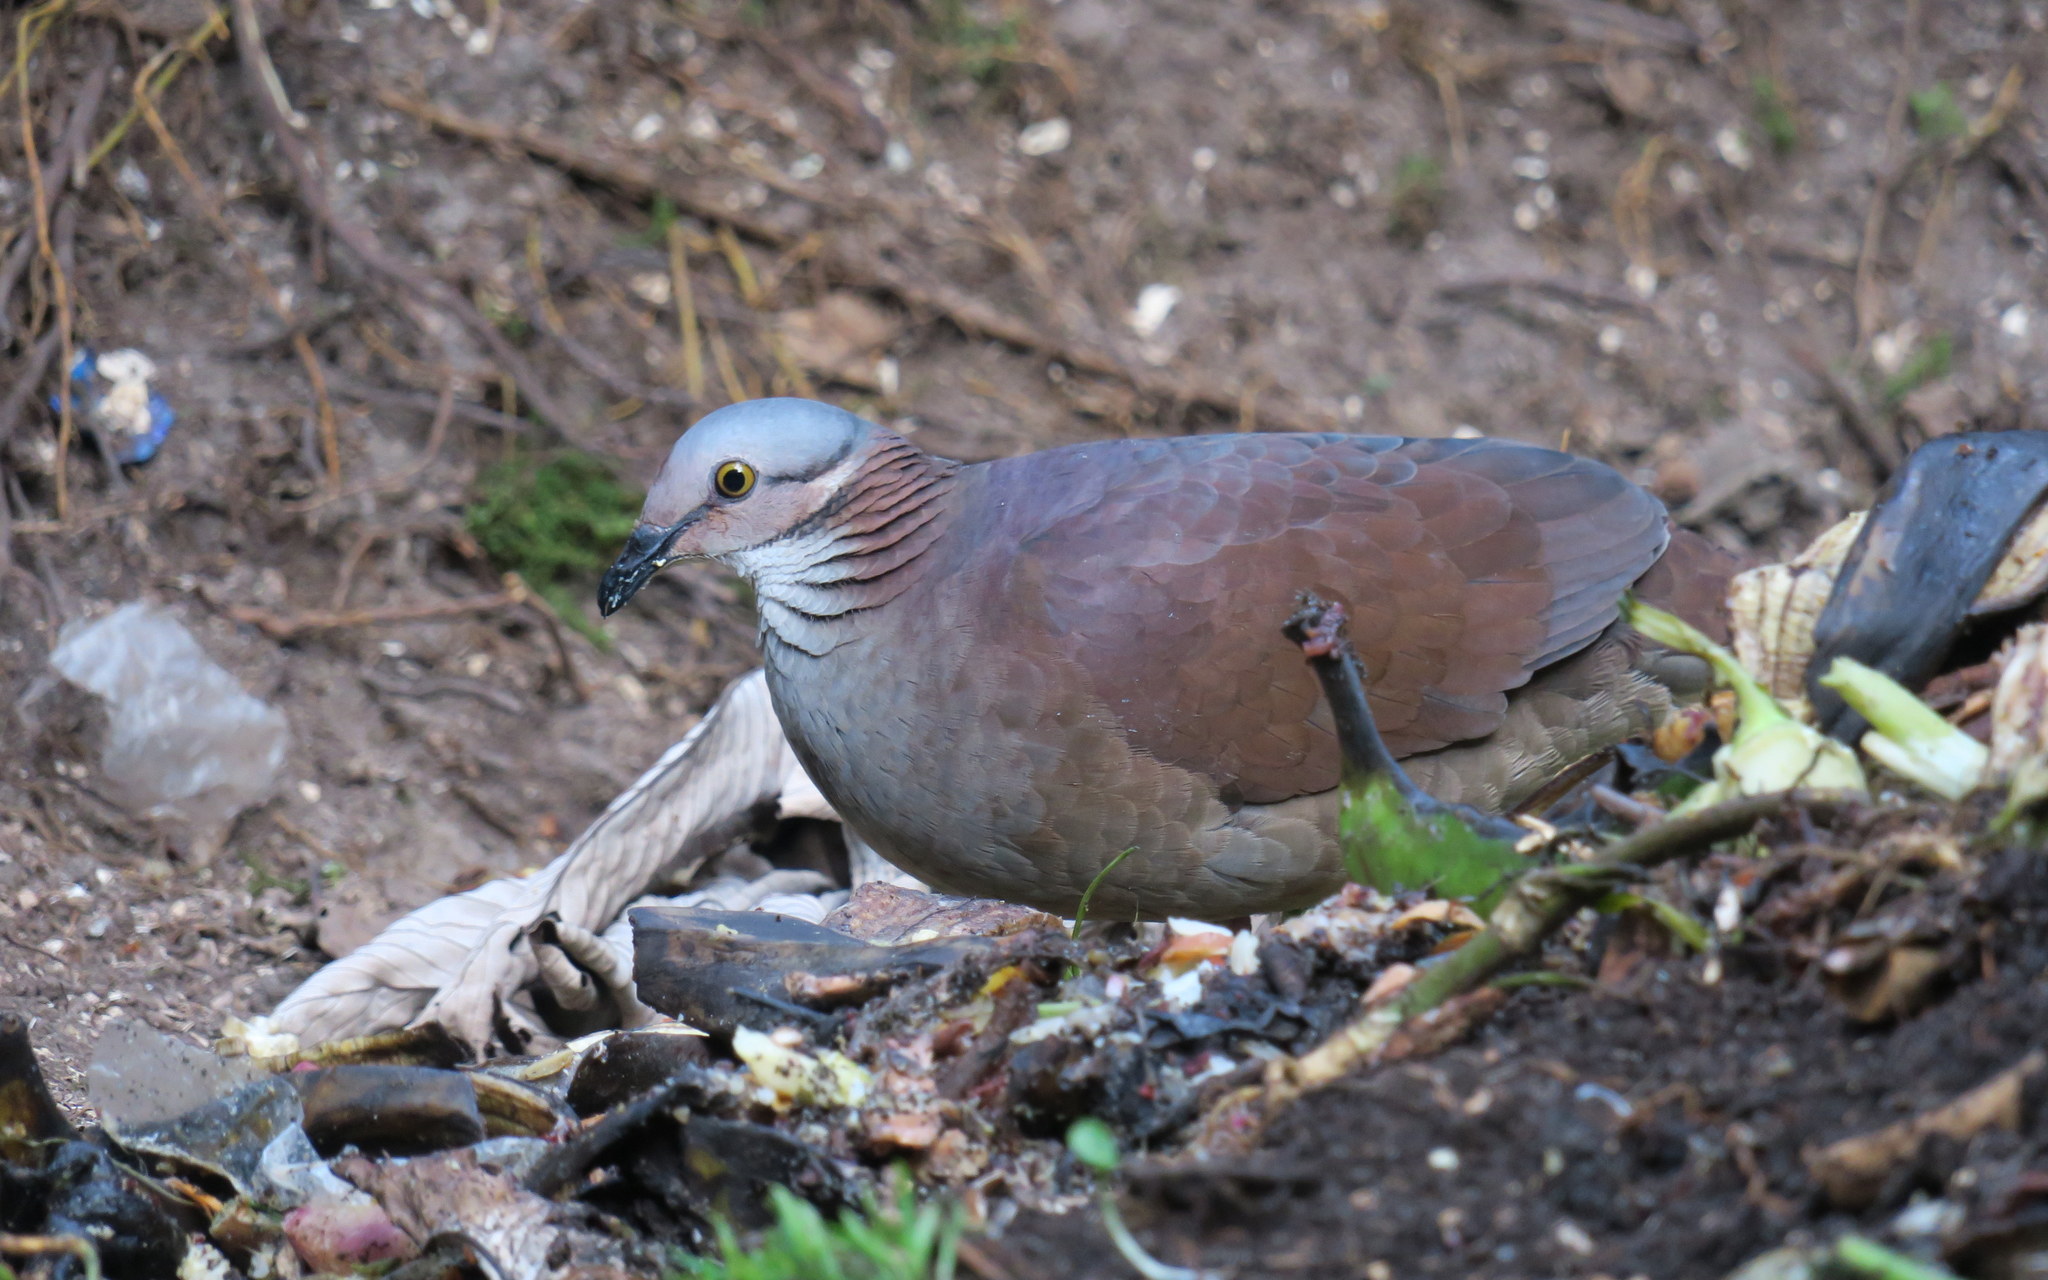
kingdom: Animalia
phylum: Chordata
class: Aves
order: Columbiformes
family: Columbidae
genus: Zentrygon
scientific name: Zentrygon frenata
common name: White-throated quail-dove
